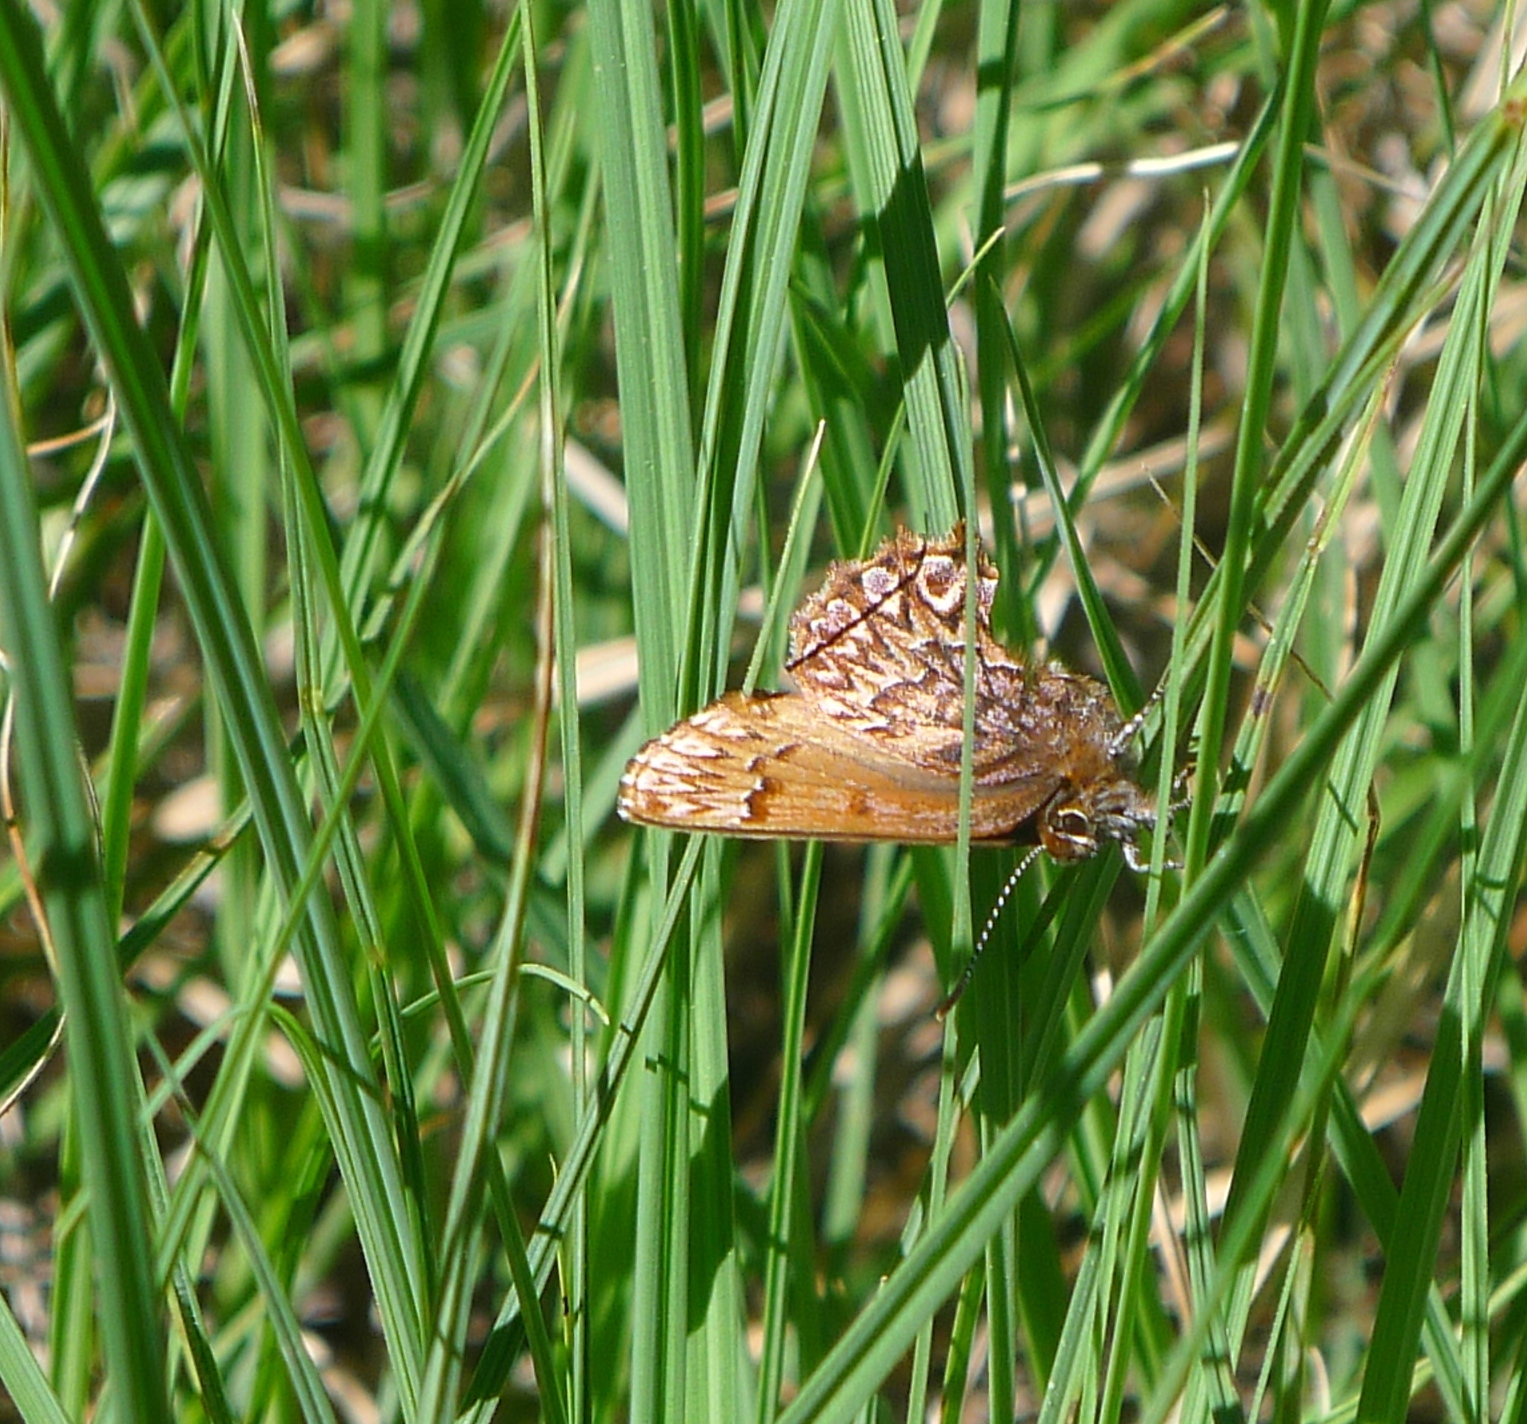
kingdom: Animalia
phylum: Arthropoda
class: Insecta
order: Lepidoptera
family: Lycaenidae
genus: Incisalia
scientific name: Incisalia eryphon
